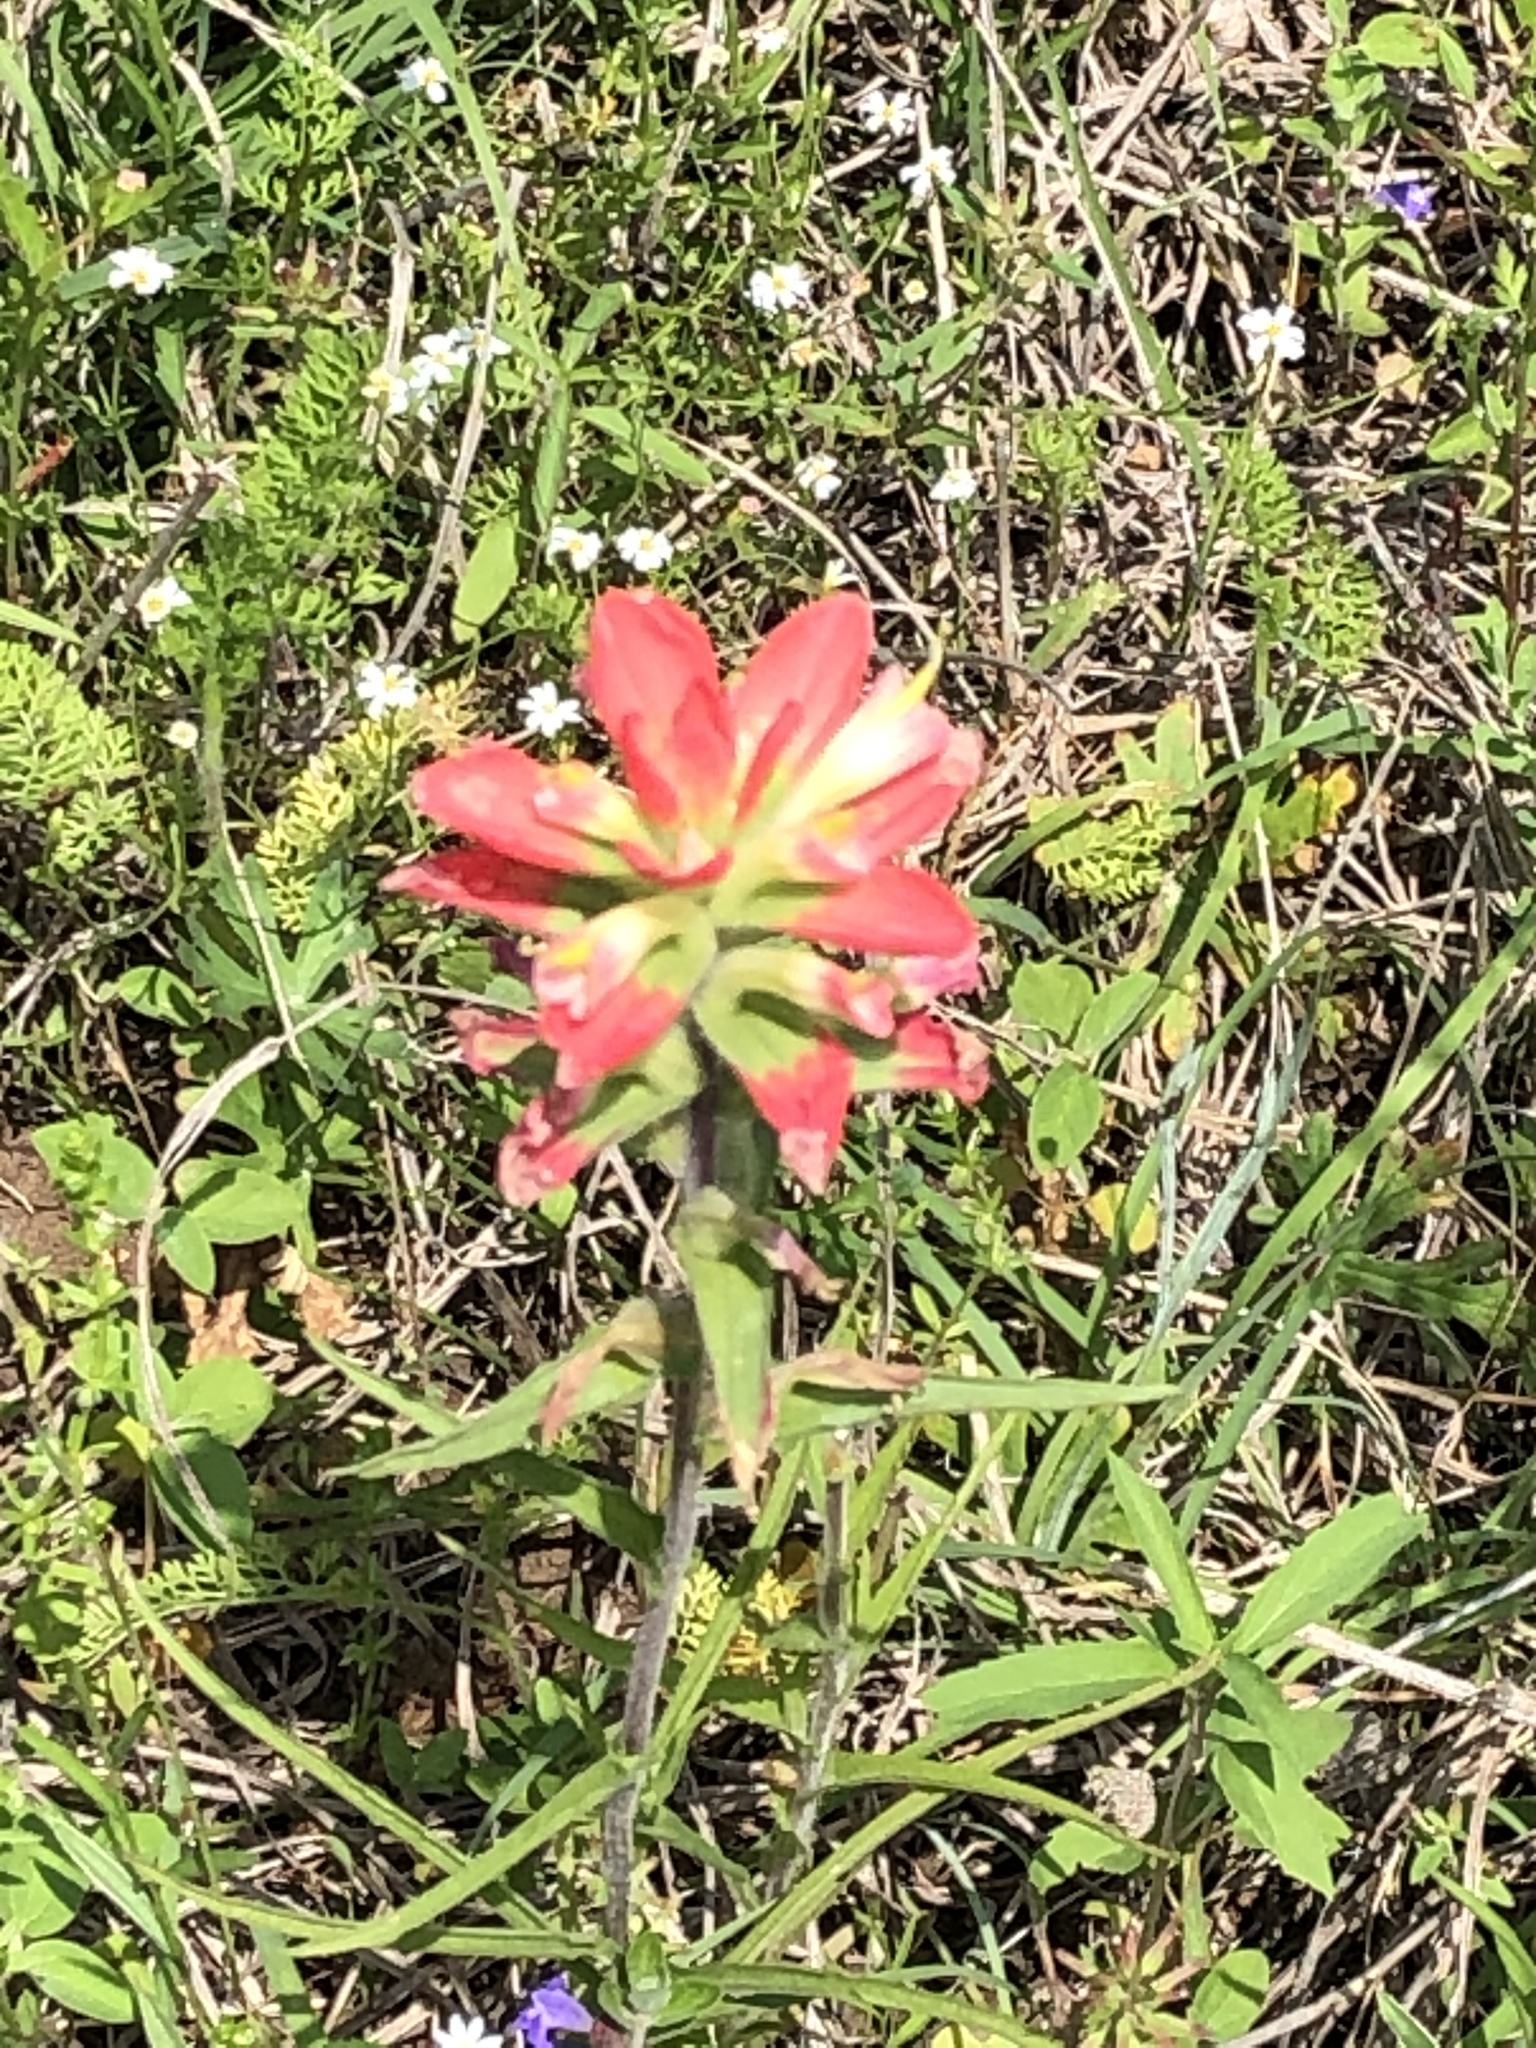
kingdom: Plantae
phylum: Tracheophyta
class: Magnoliopsida
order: Lamiales
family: Orobanchaceae
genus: Castilleja
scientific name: Castilleja indivisa
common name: Texas paintbrush
